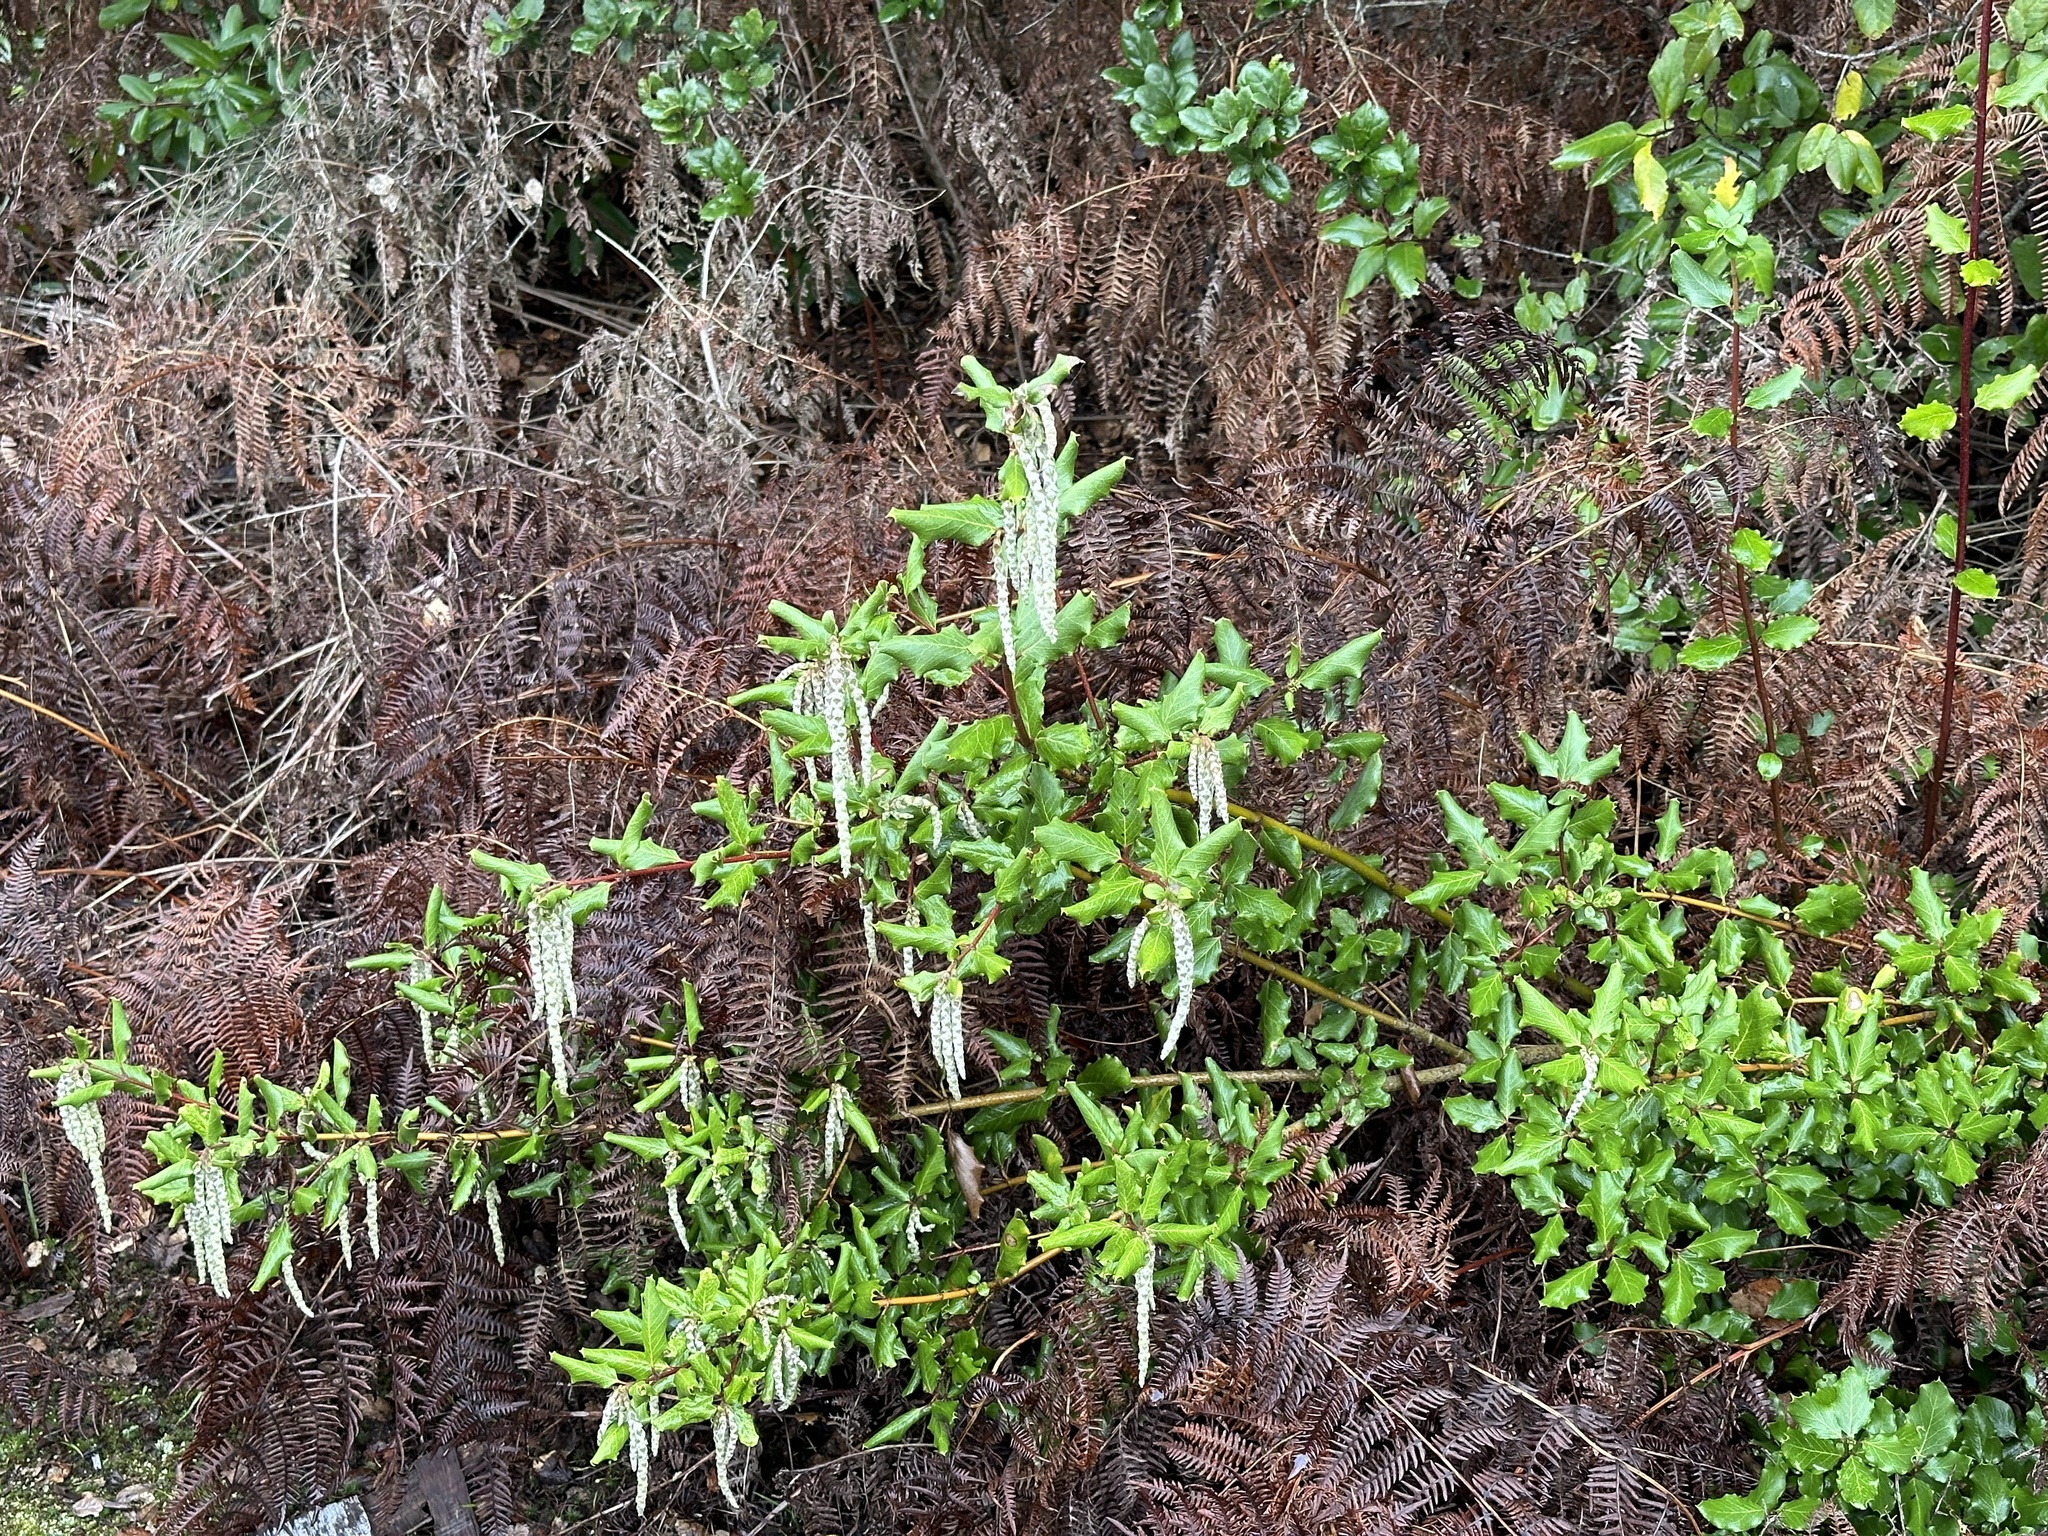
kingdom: Plantae
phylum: Tracheophyta
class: Magnoliopsida
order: Garryales
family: Garryaceae
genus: Garrya
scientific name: Garrya elliptica
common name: Silk-tassel
